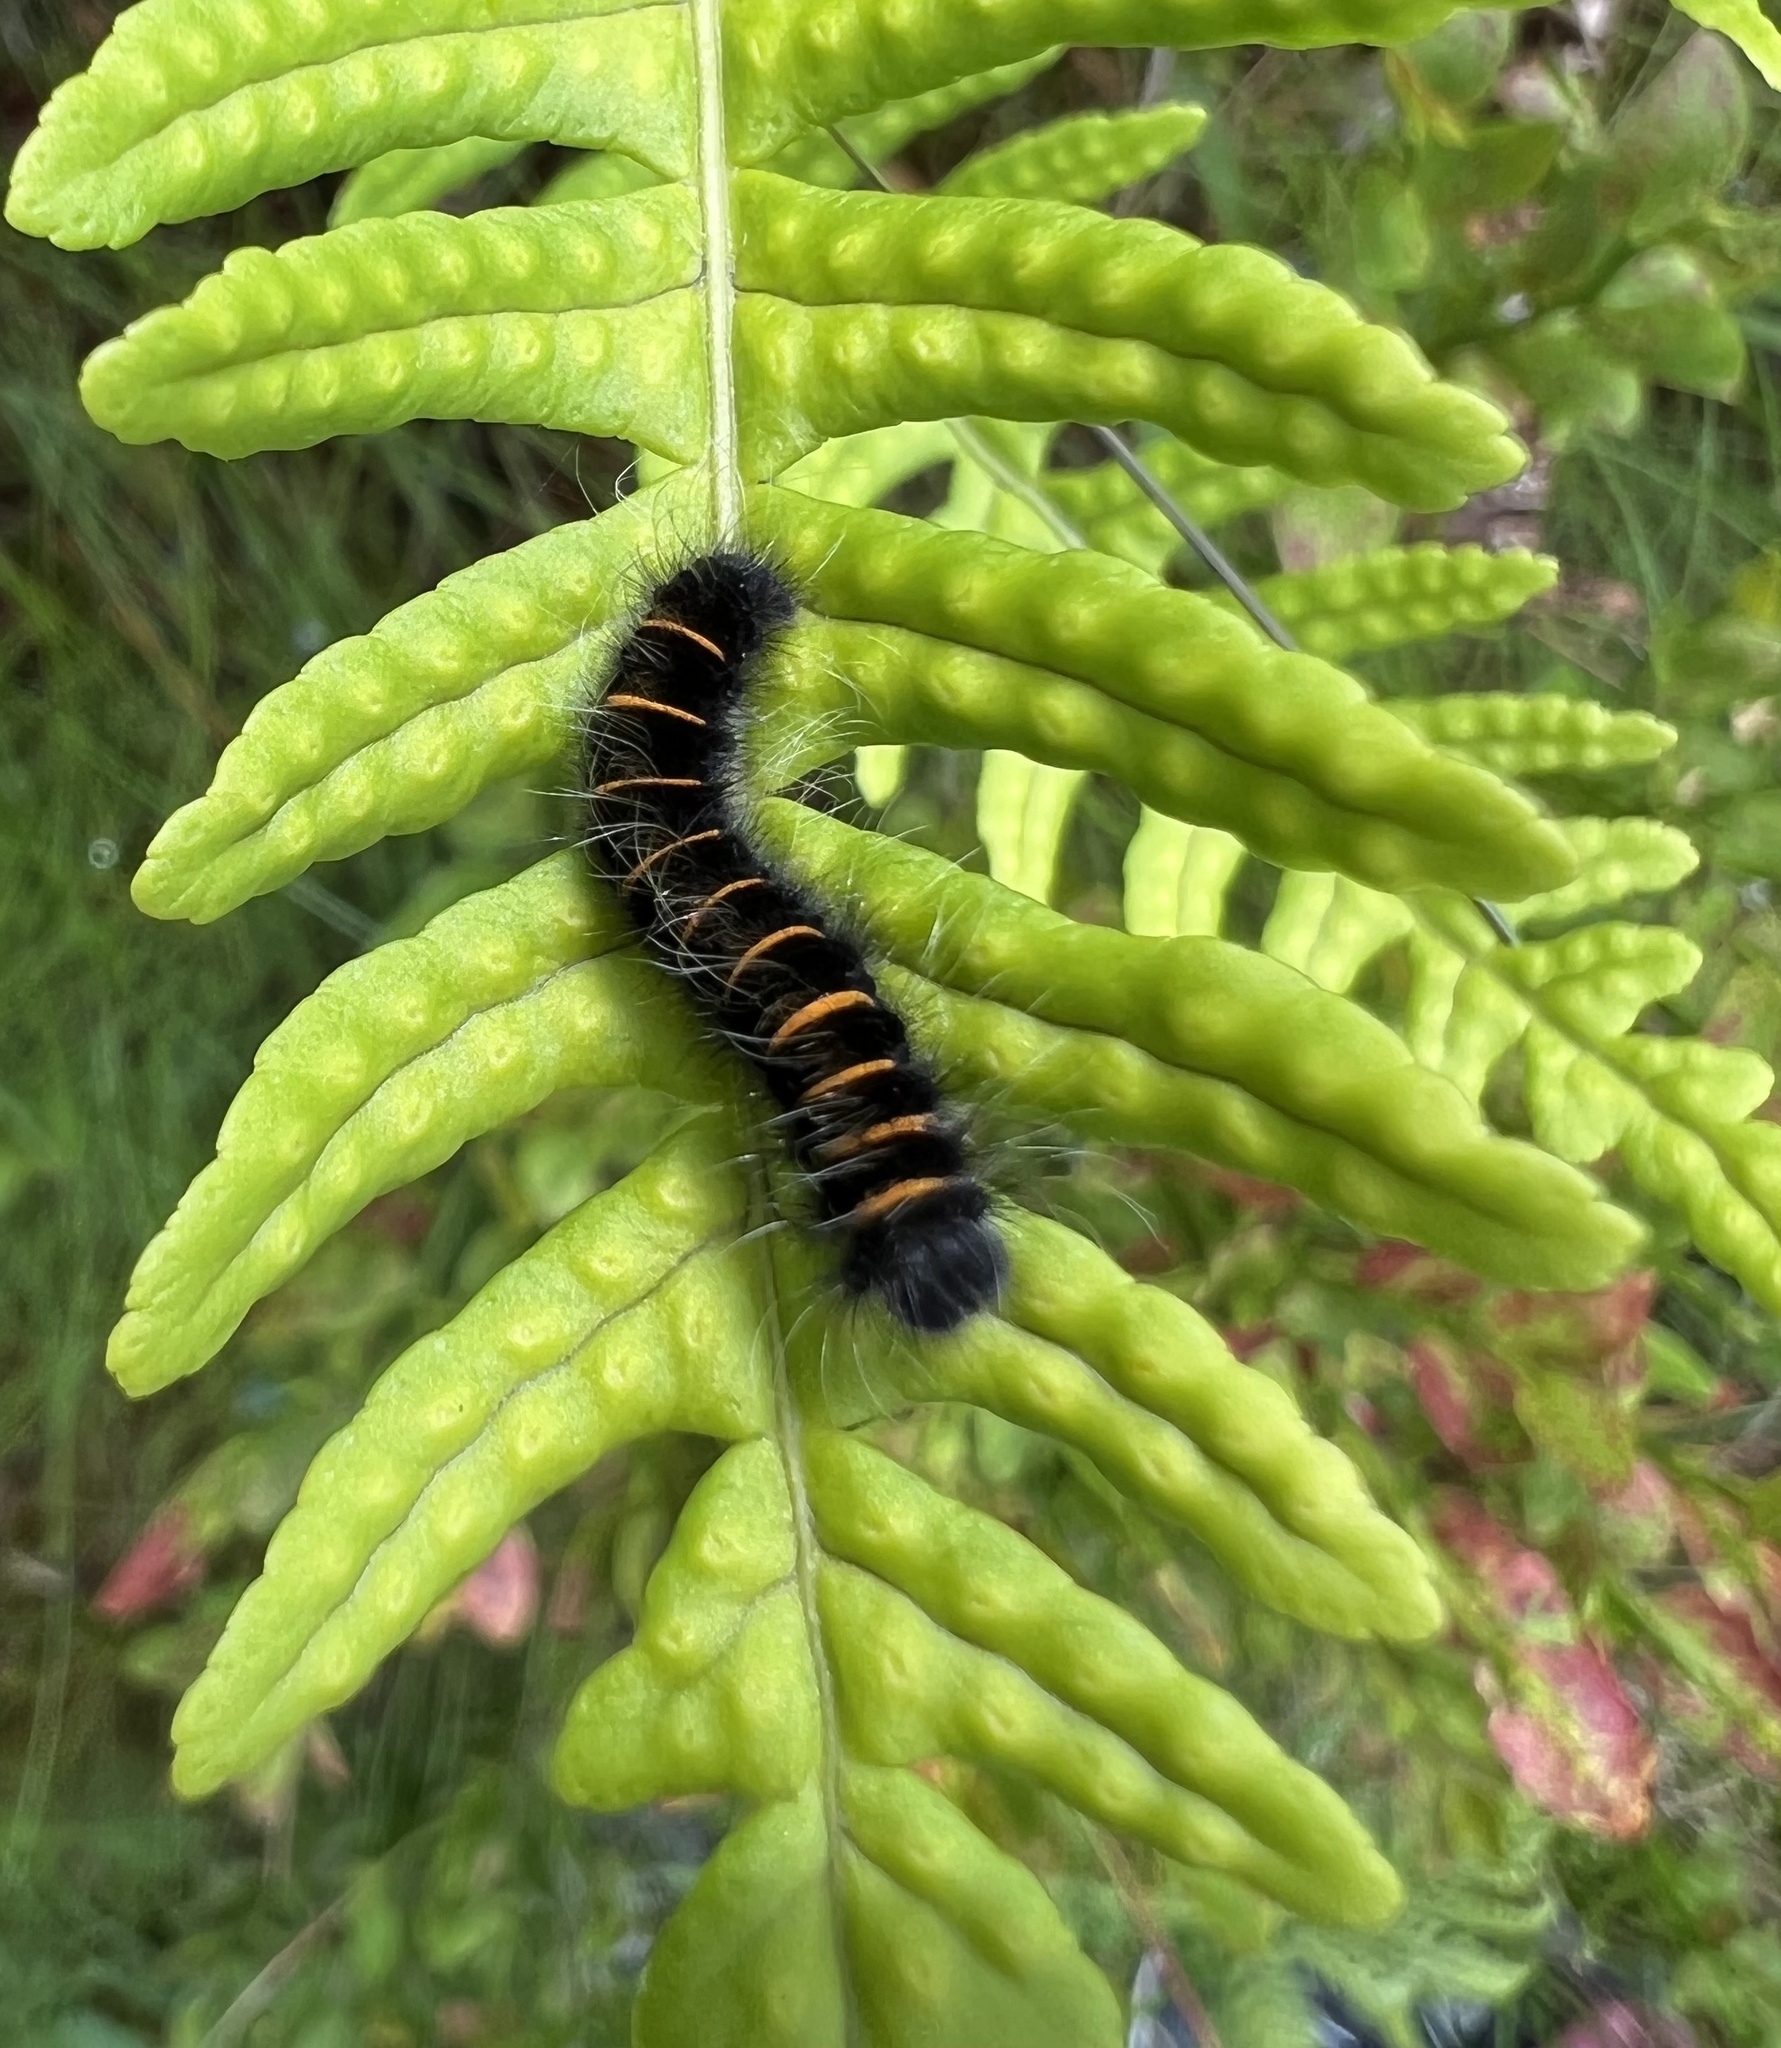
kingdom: Animalia
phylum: Arthropoda
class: Insecta
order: Lepidoptera
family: Lasiocampidae
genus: Macrothylacia
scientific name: Macrothylacia rubi
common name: Fox moth
